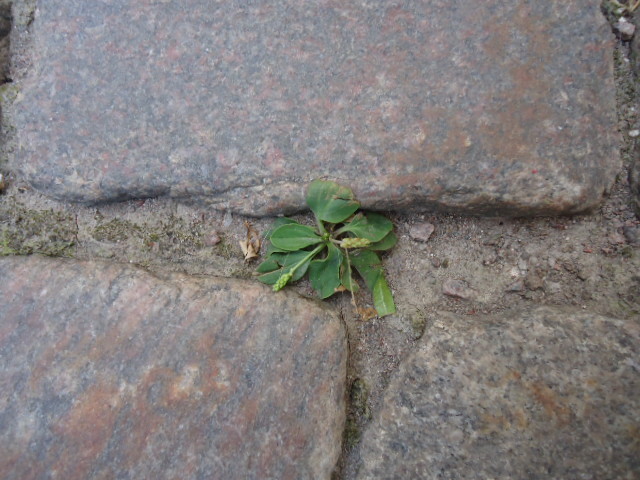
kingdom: Plantae
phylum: Tracheophyta
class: Magnoliopsida
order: Lamiales
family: Plantaginaceae
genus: Plantago
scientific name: Plantago major
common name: Common plantain
